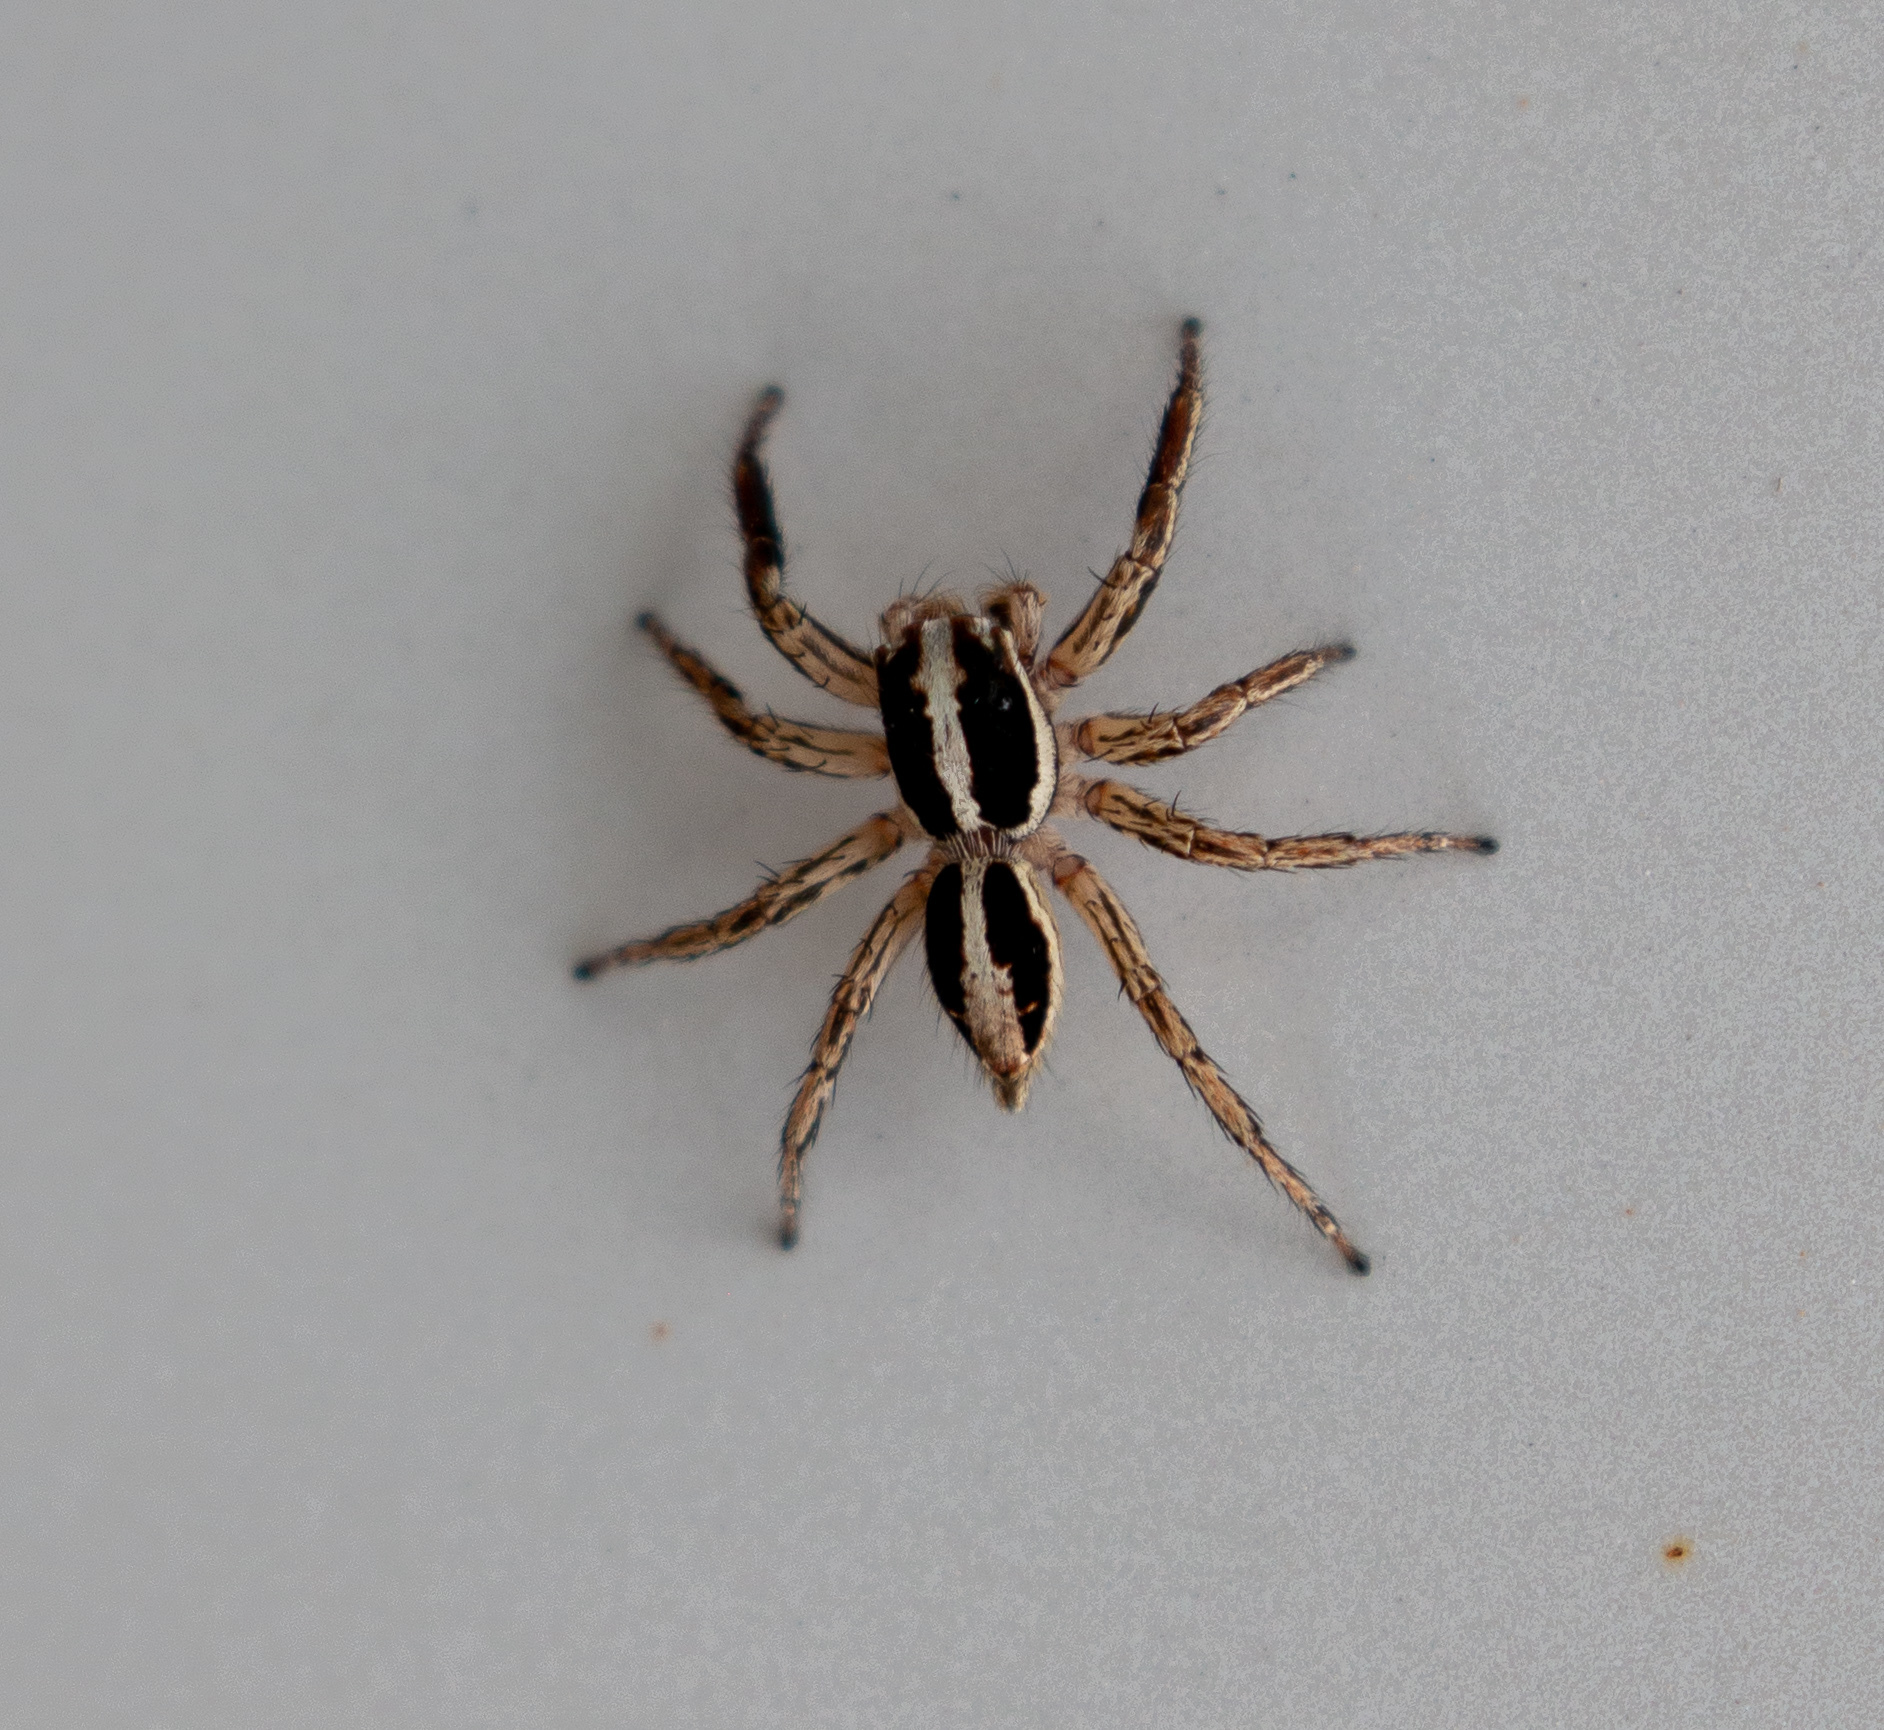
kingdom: Animalia
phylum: Arthropoda
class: Arachnida
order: Araneae
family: Salticidae
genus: Plexippus
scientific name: Plexippus paykulli
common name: Pantropical jumper
